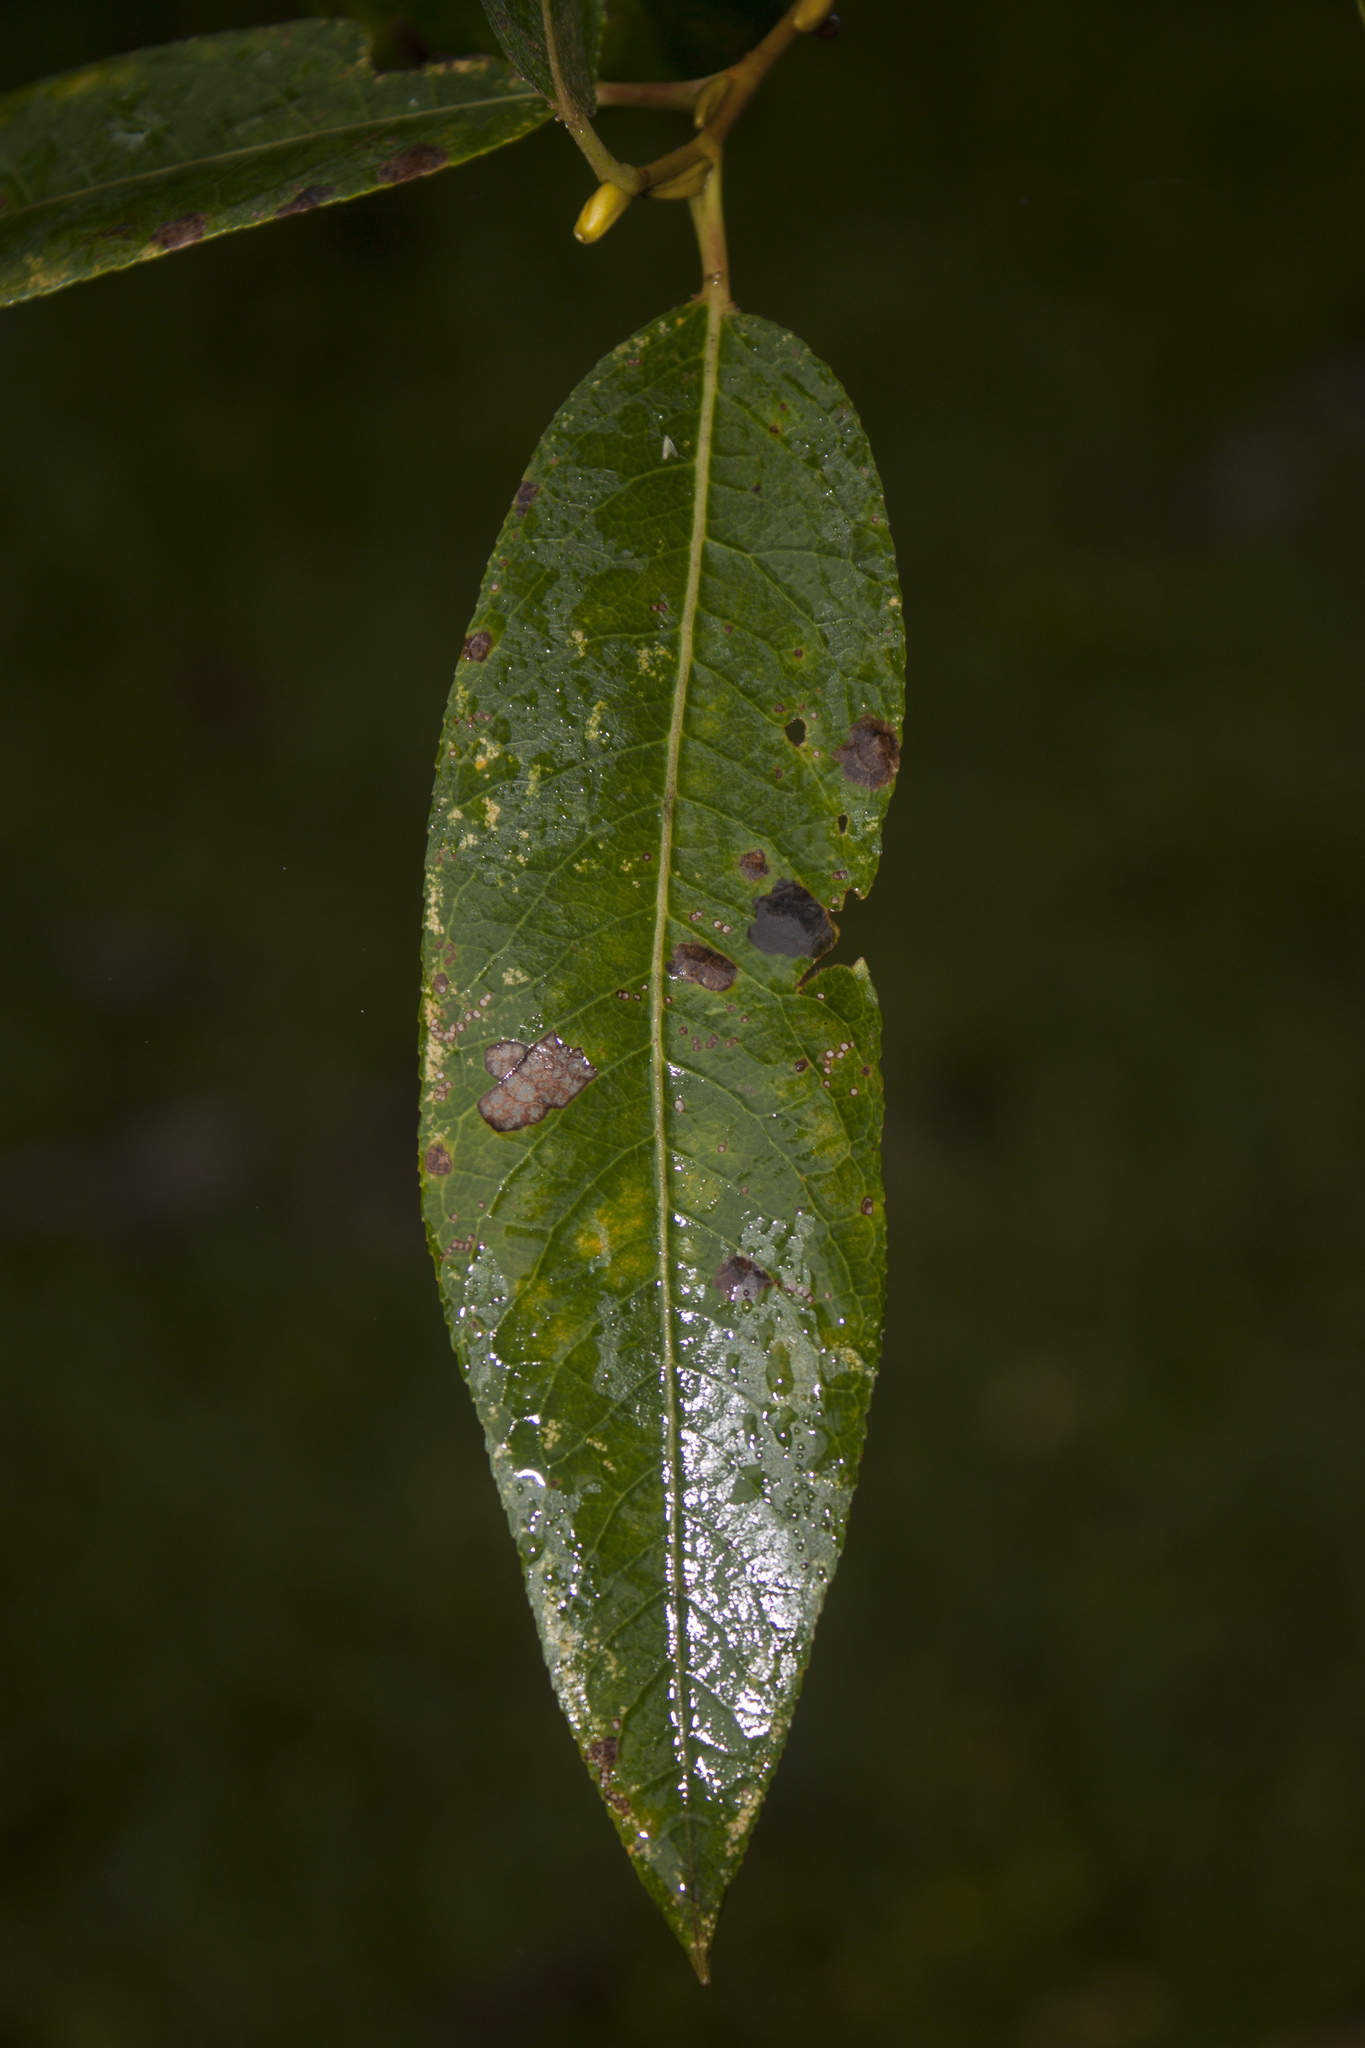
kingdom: Plantae
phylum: Tracheophyta
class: Magnoliopsida
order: Malpighiales
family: Salicaceae
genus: Salix
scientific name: Salix lucida
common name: Shining willow
